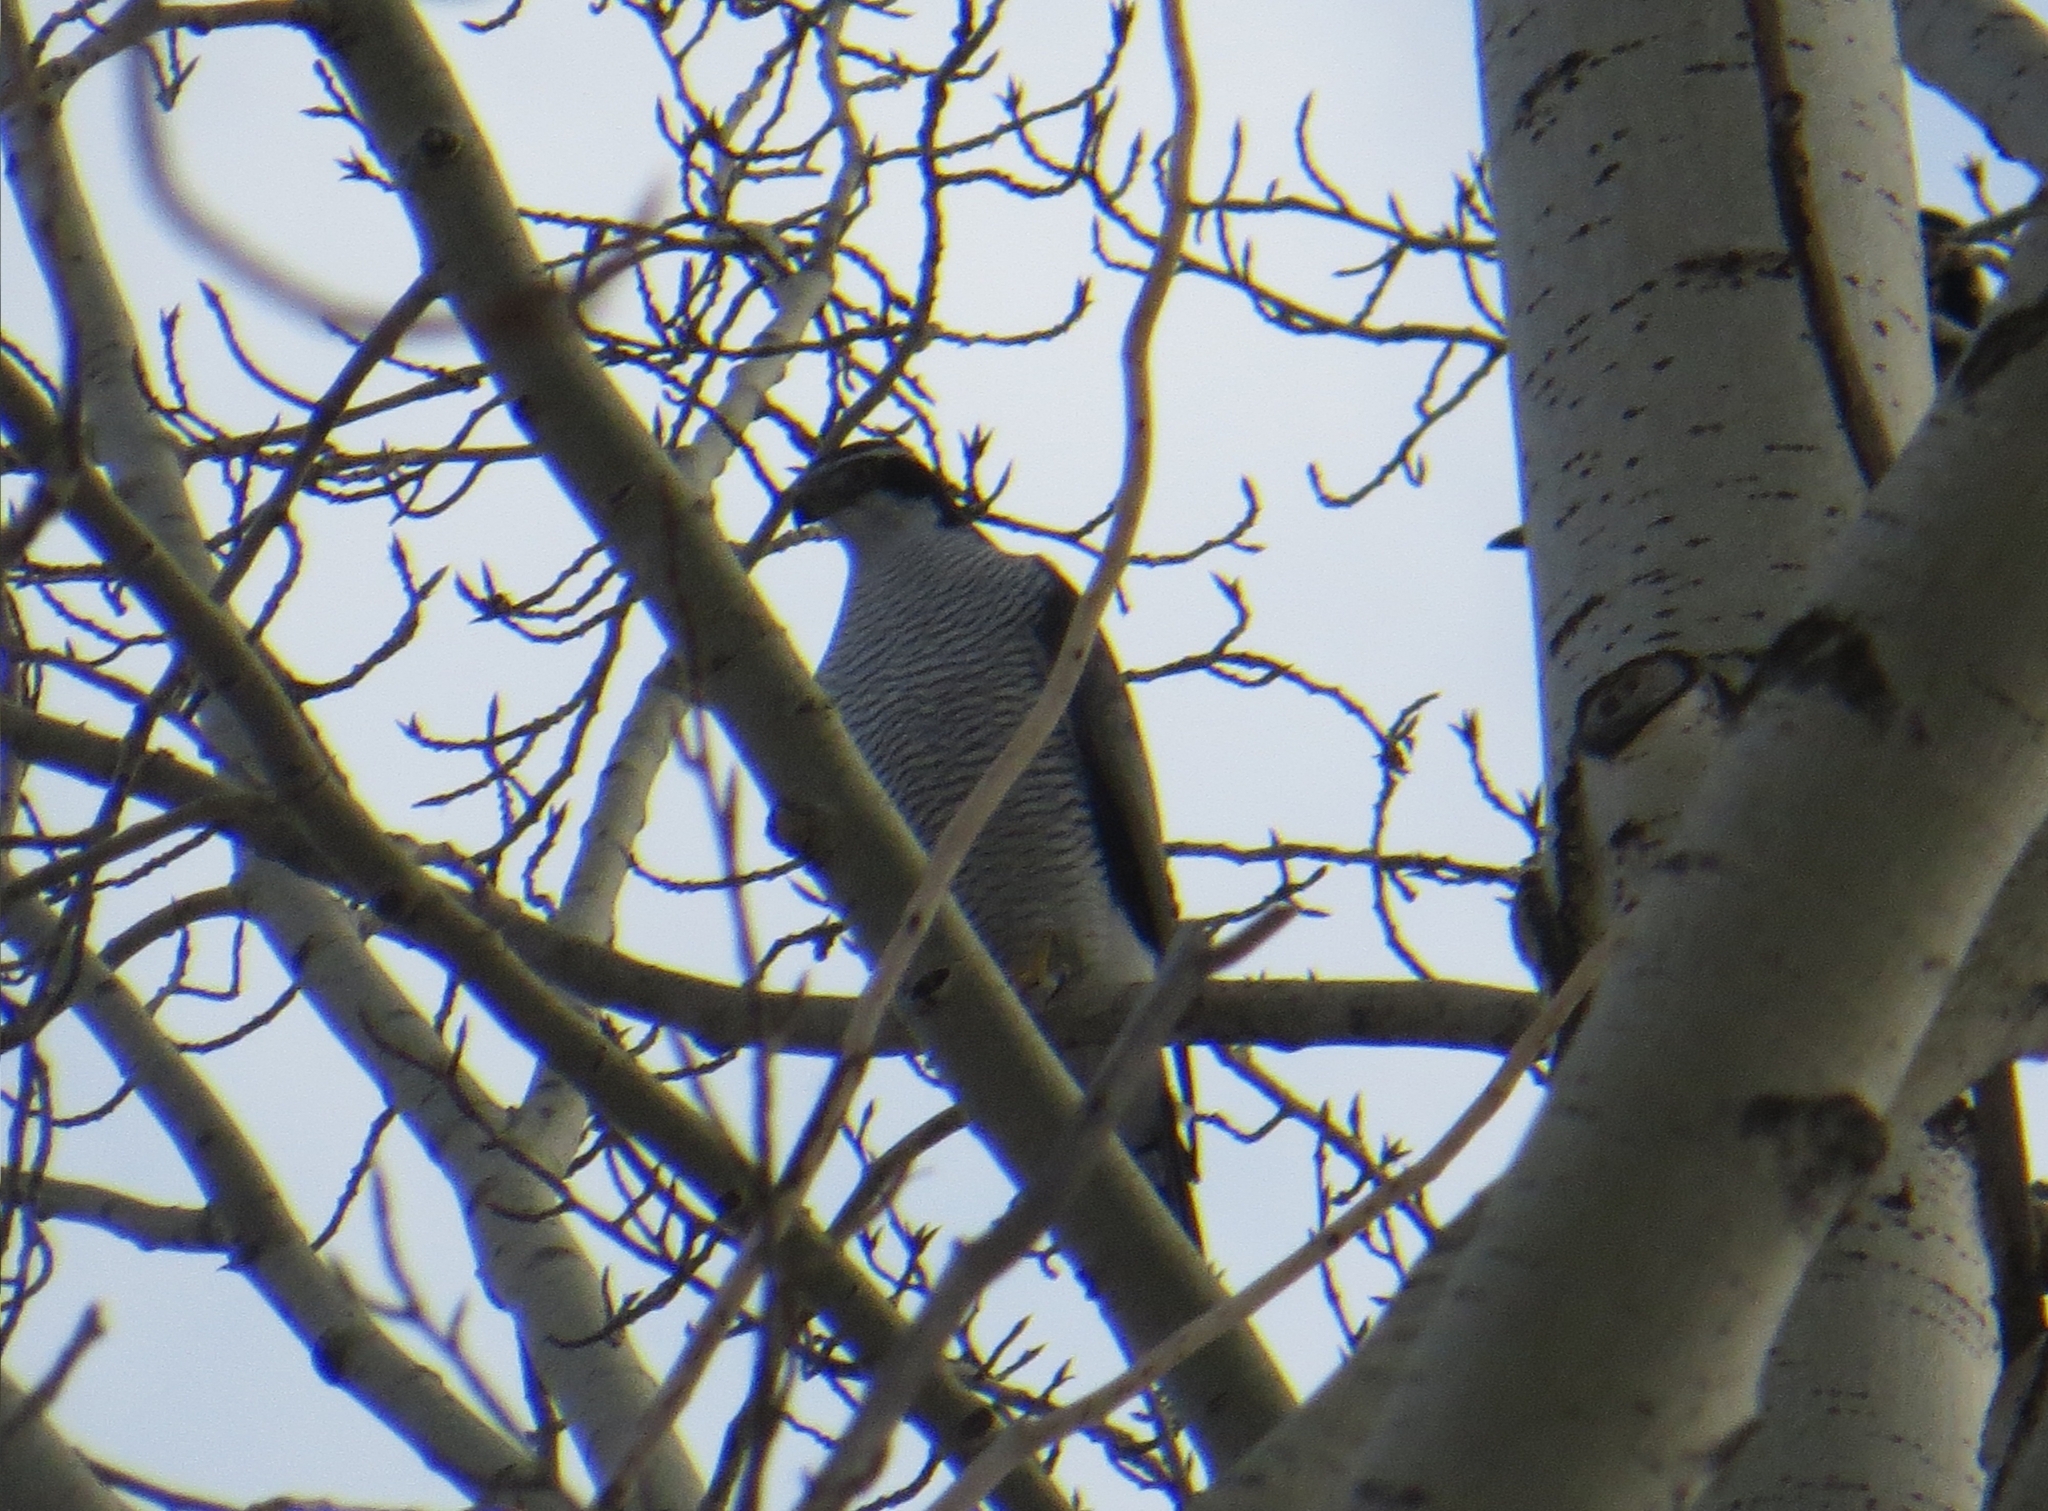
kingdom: Animalia
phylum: Chordata
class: Aves
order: Accipitriformes
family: Accipitridae
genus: Accipiter
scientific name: Accipiter gentilis
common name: Northern goshawk
